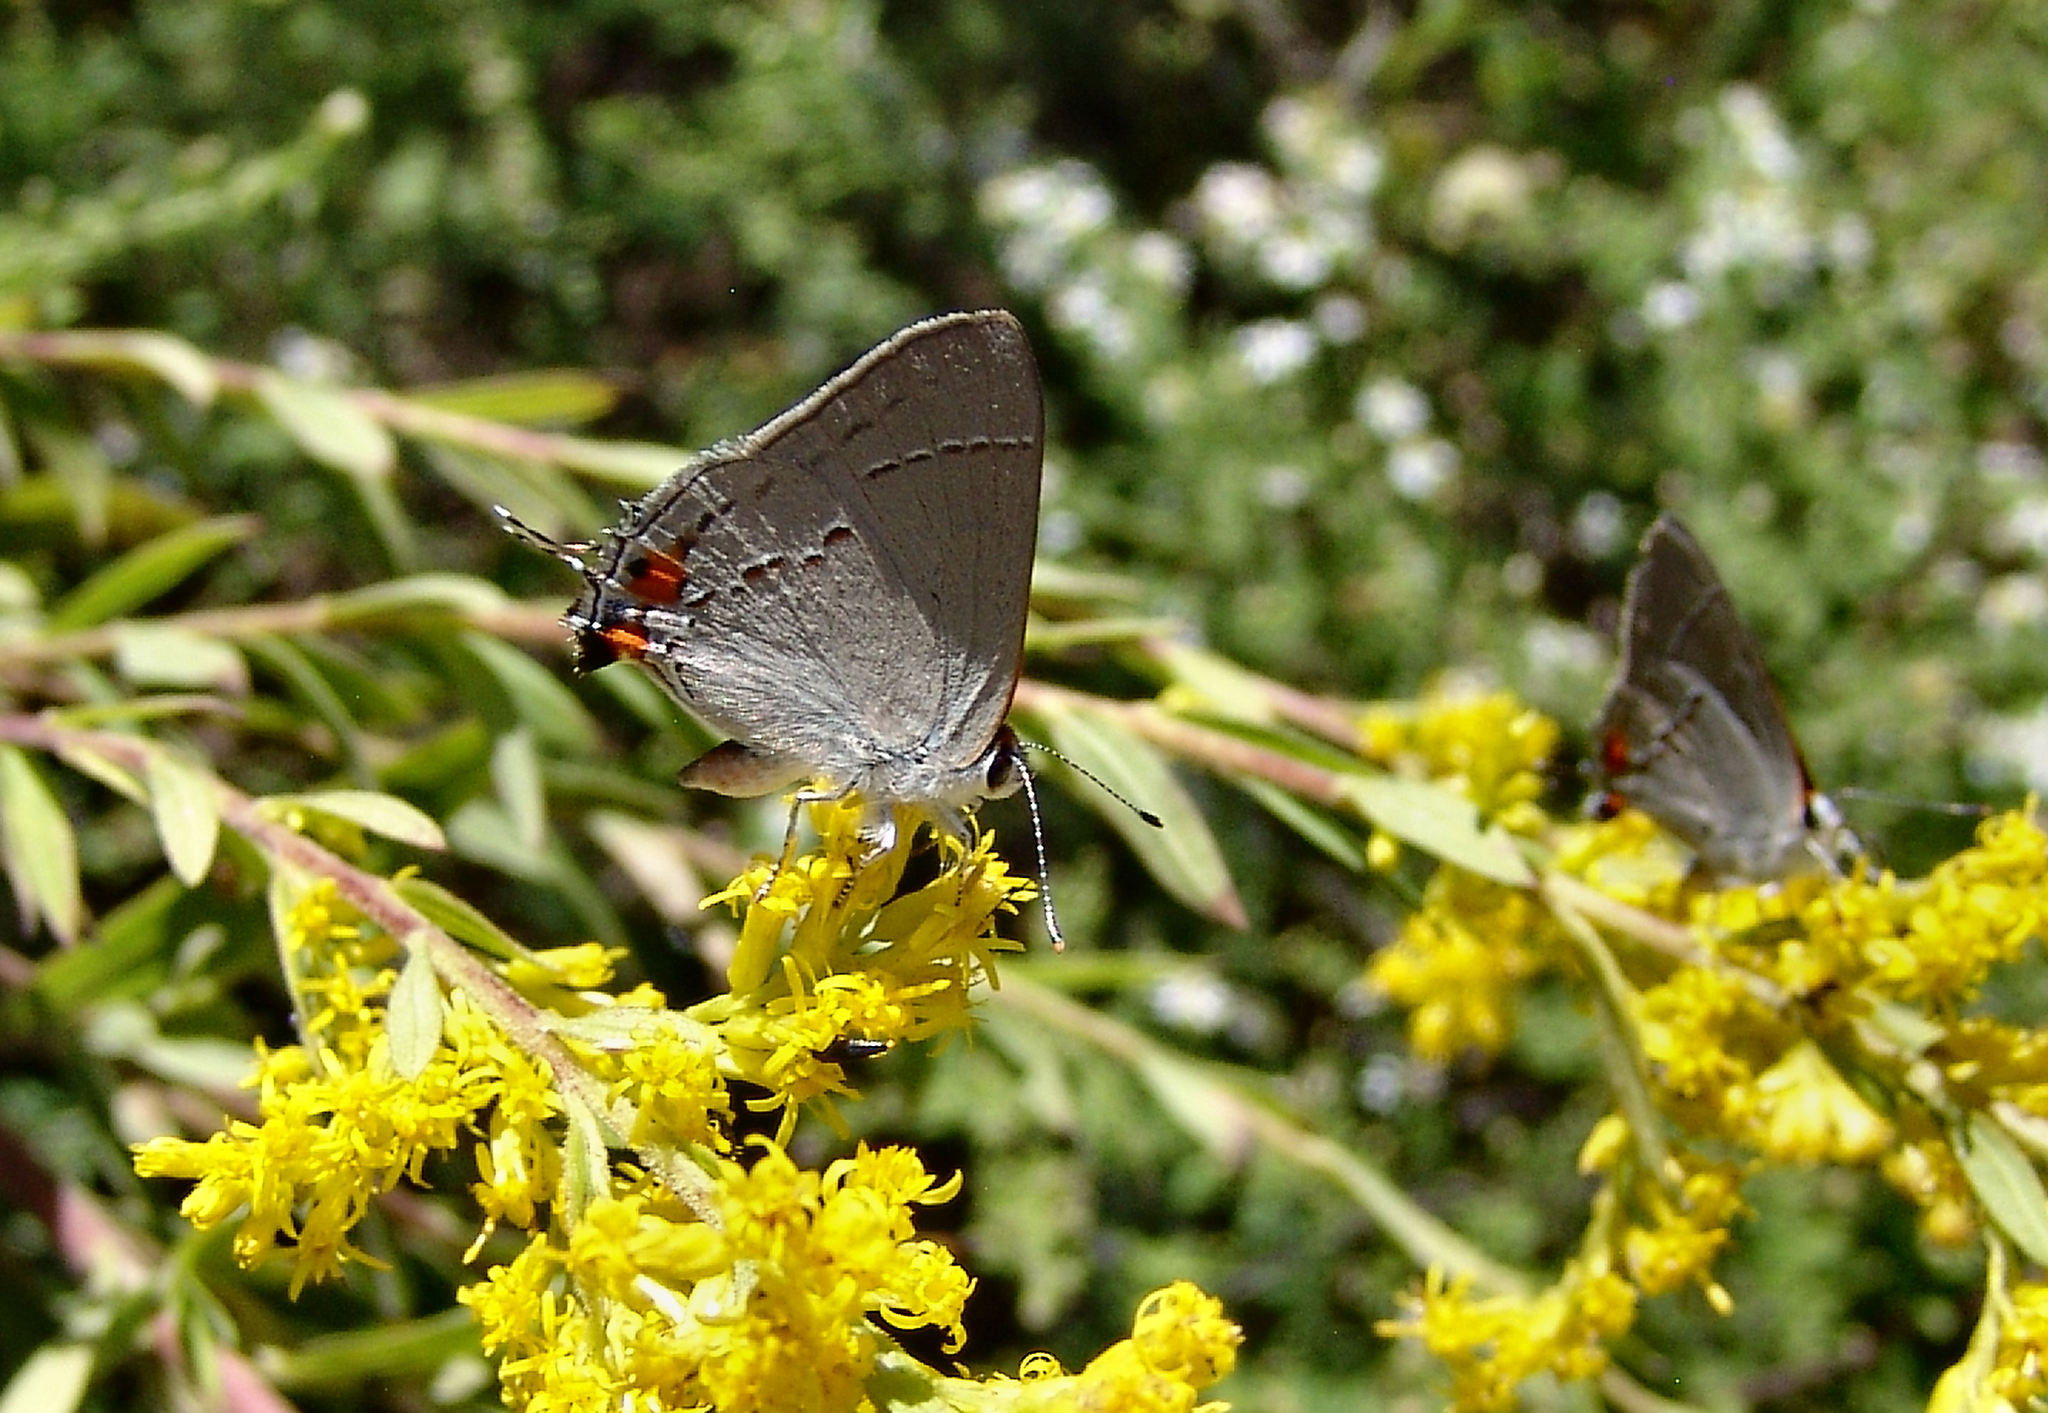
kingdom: Animalia
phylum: Arthropoda
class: Insecta
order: Lepidoptera
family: Lycaenidae
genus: Strymon
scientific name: Strymon melinus
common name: Gray hairstreak
